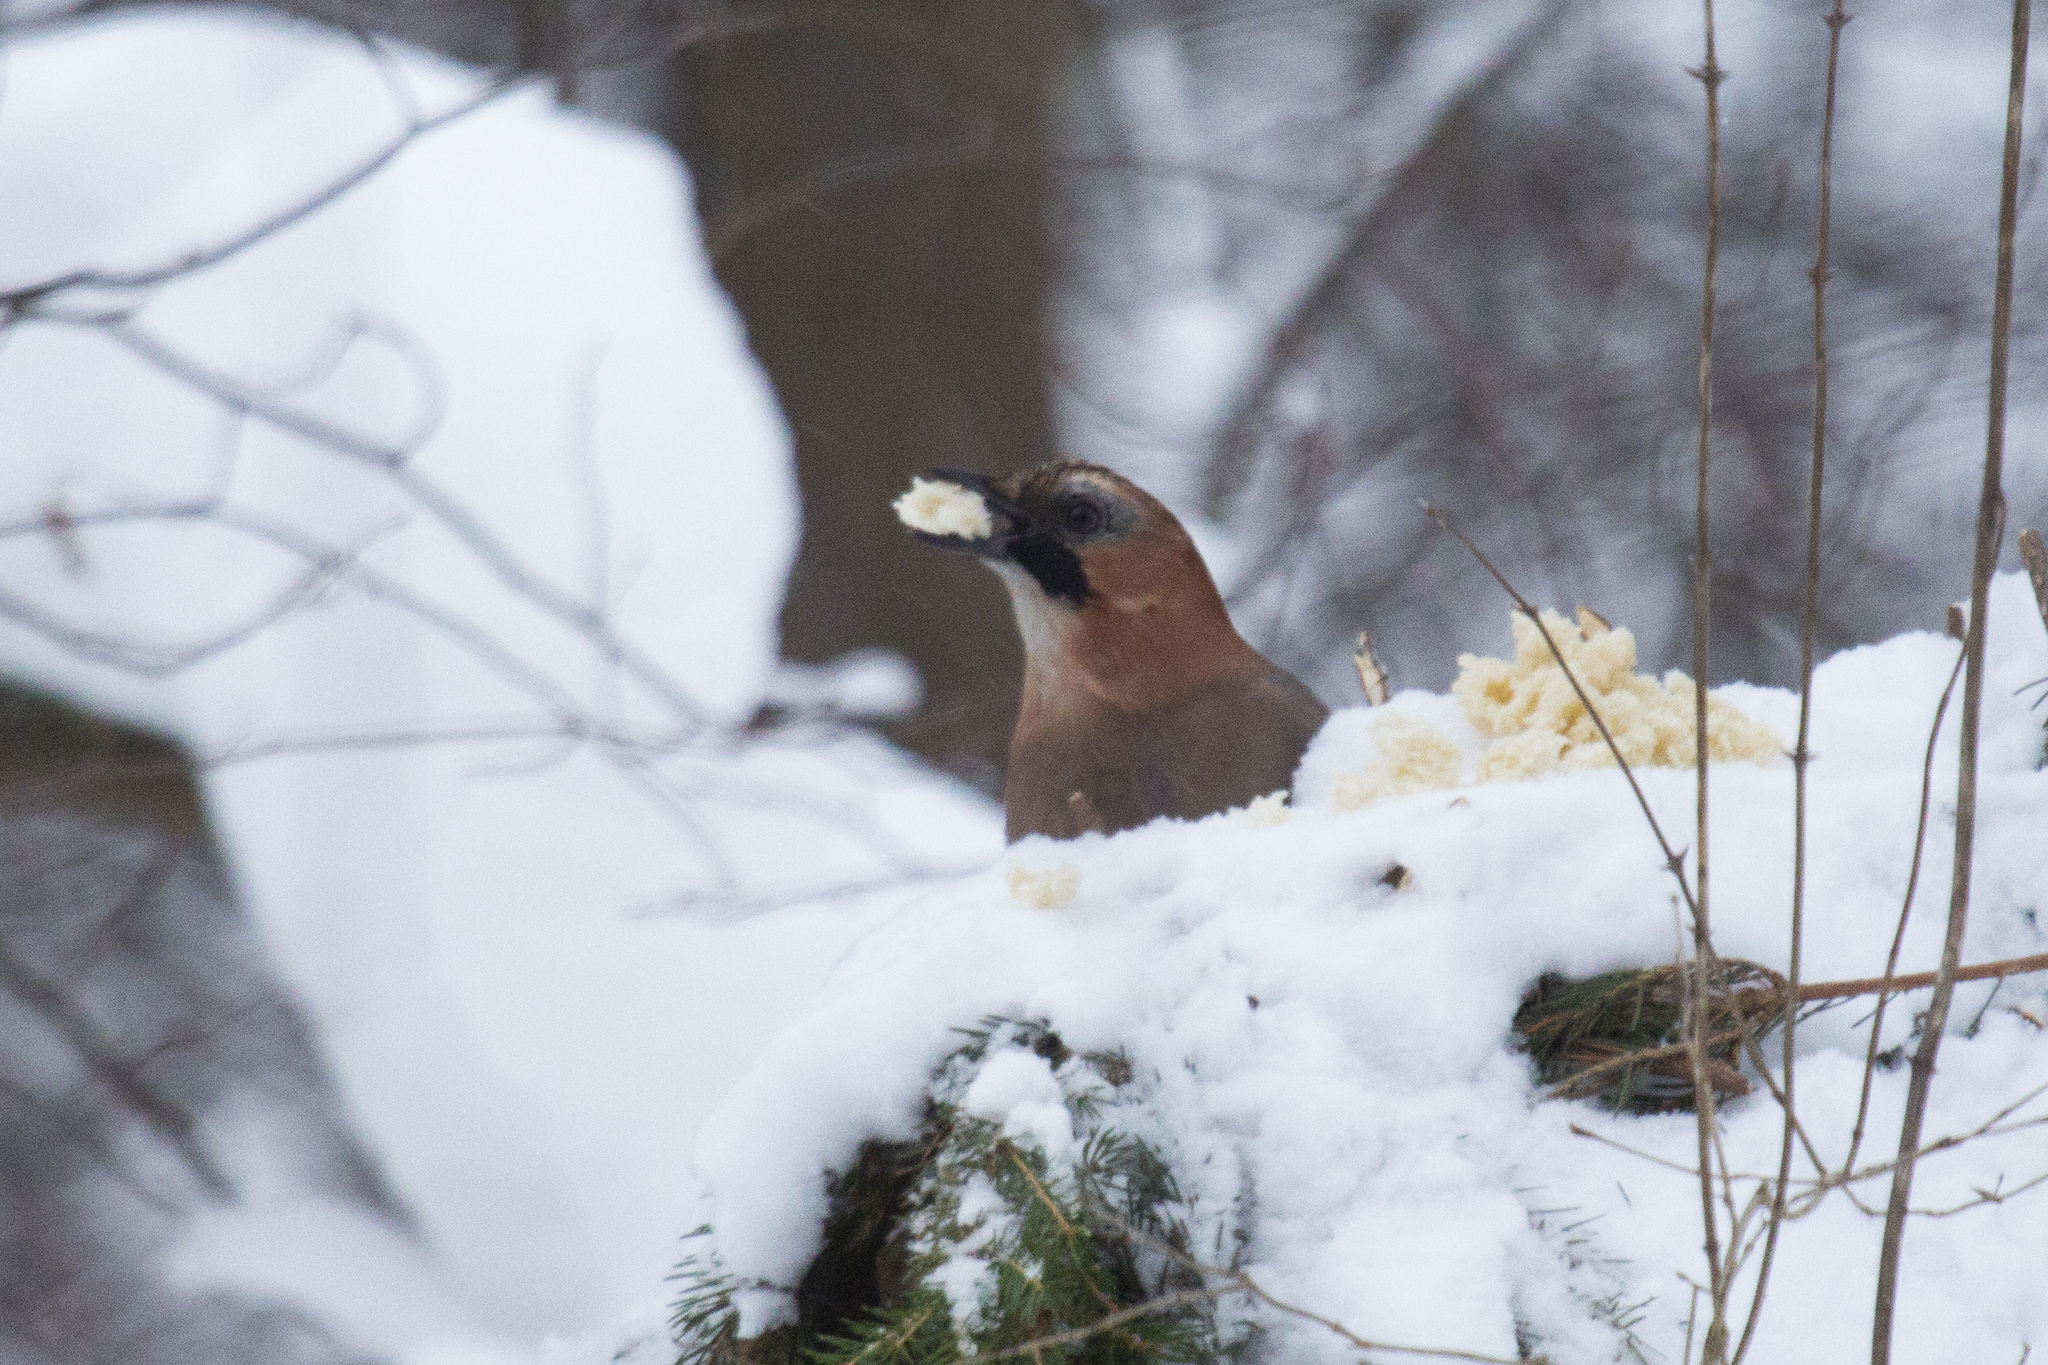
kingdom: Animalia
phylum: Chordata
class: Aves
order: Passeriformes
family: Corvidae
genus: Garrulus
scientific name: Garrulus glandarius
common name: Eurasian jay
